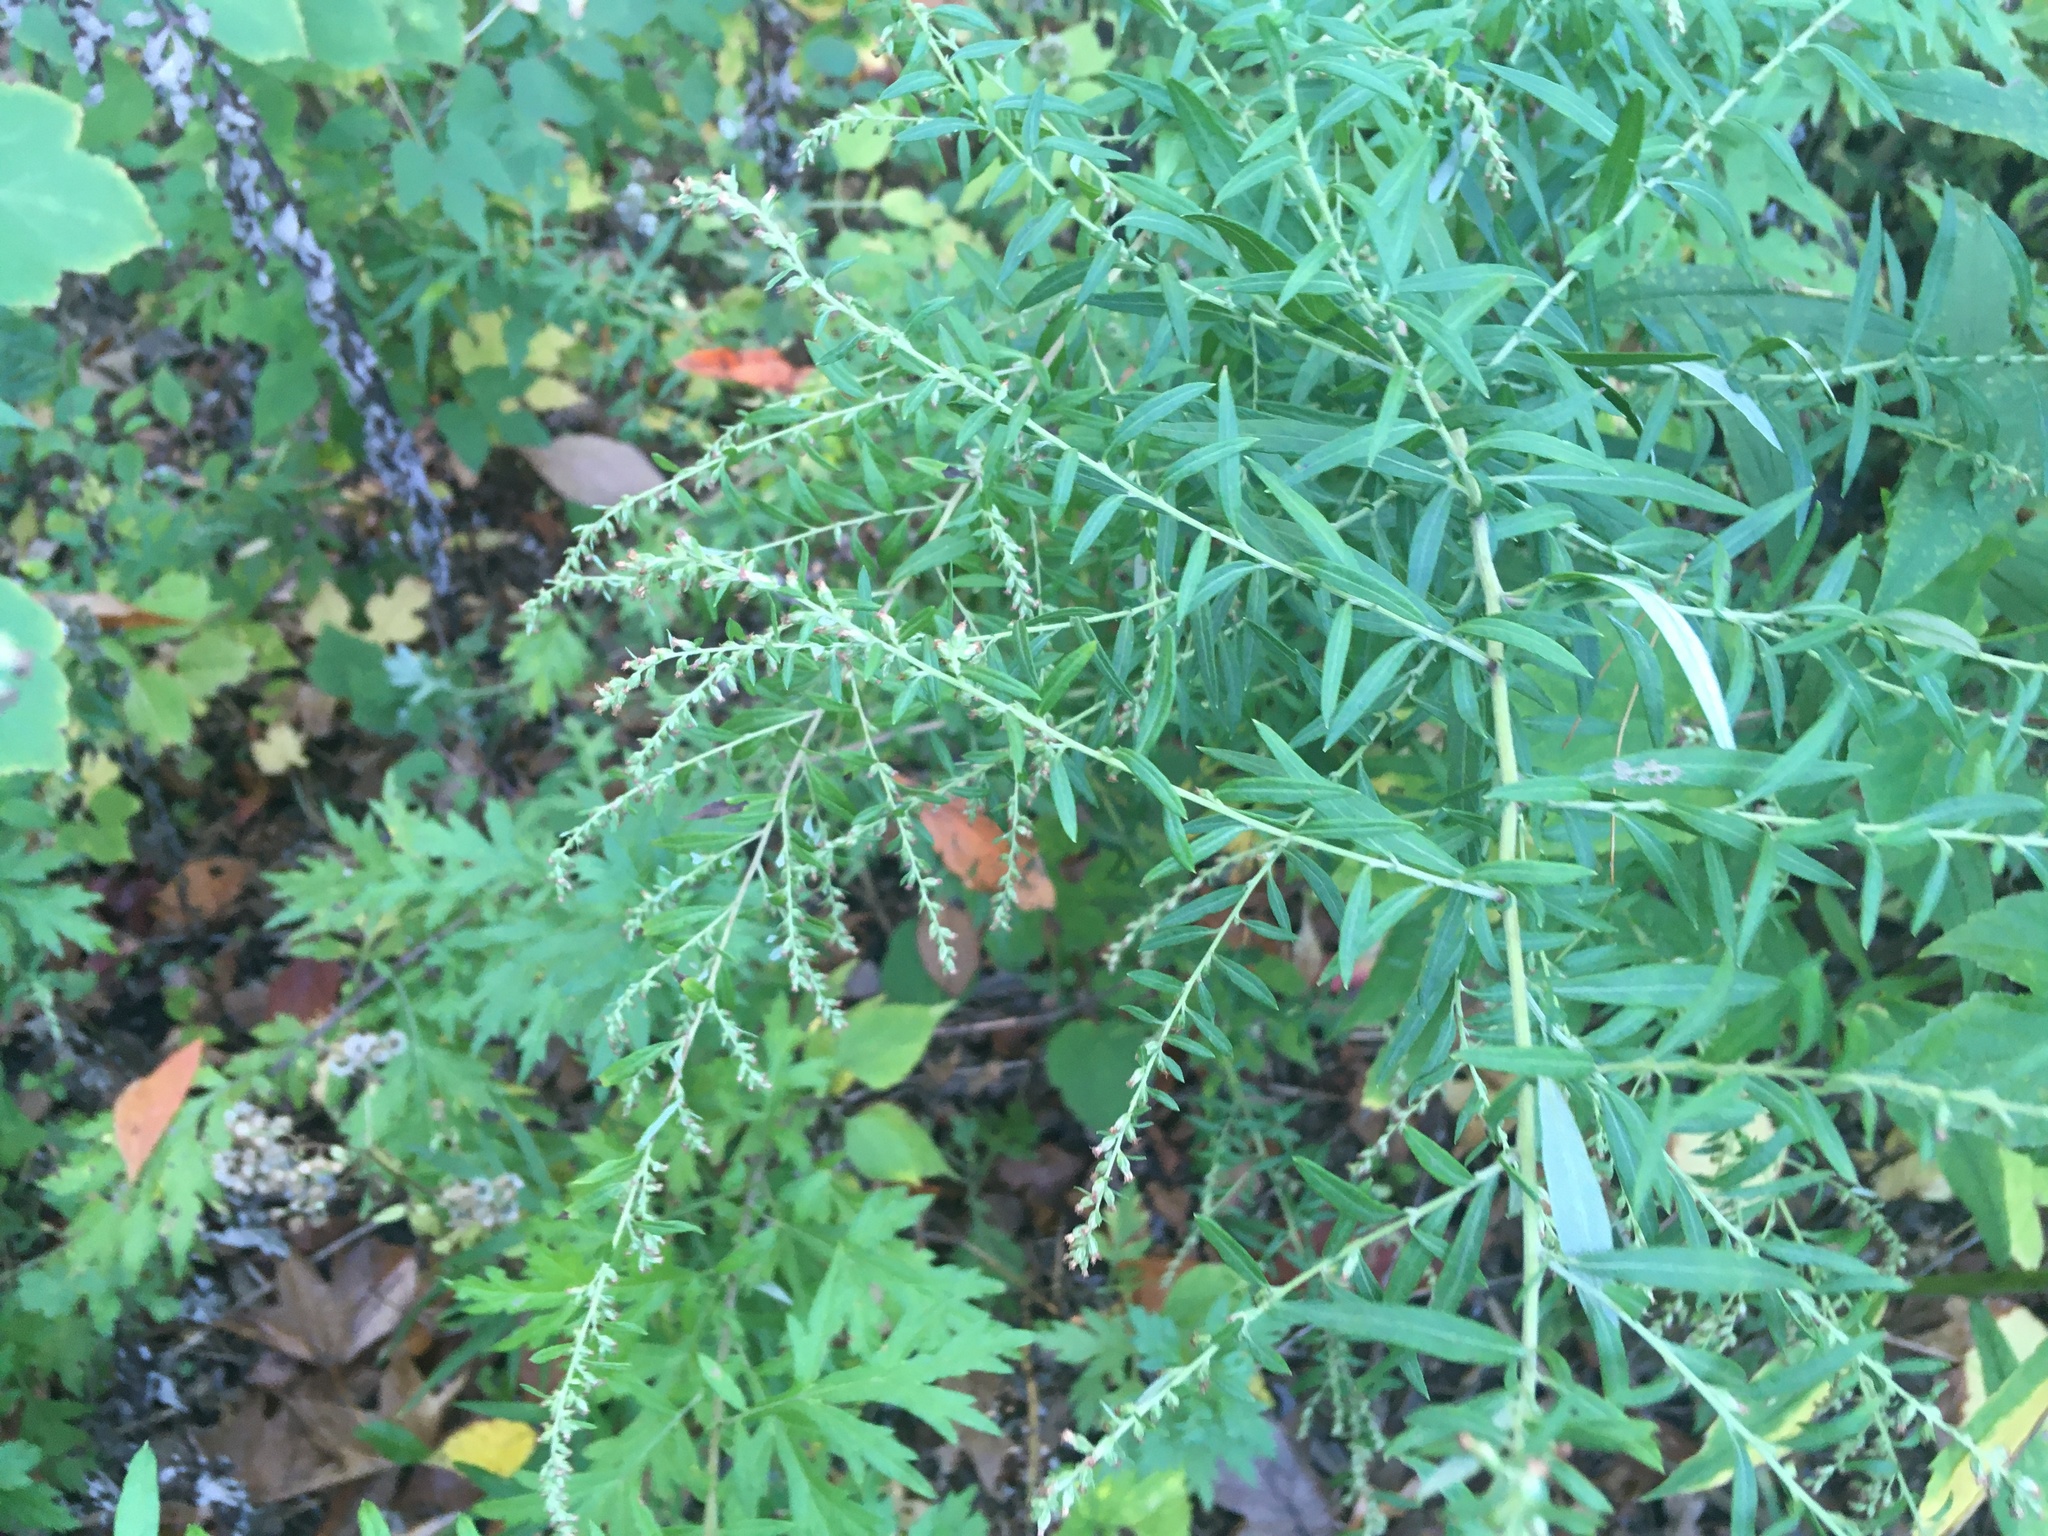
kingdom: Plantae
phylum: Tracheophyta
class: Magnoliopsida
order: Asterales
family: Asteraceae
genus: Artemisia
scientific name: Artemisia vulgaris
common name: Mugwort
